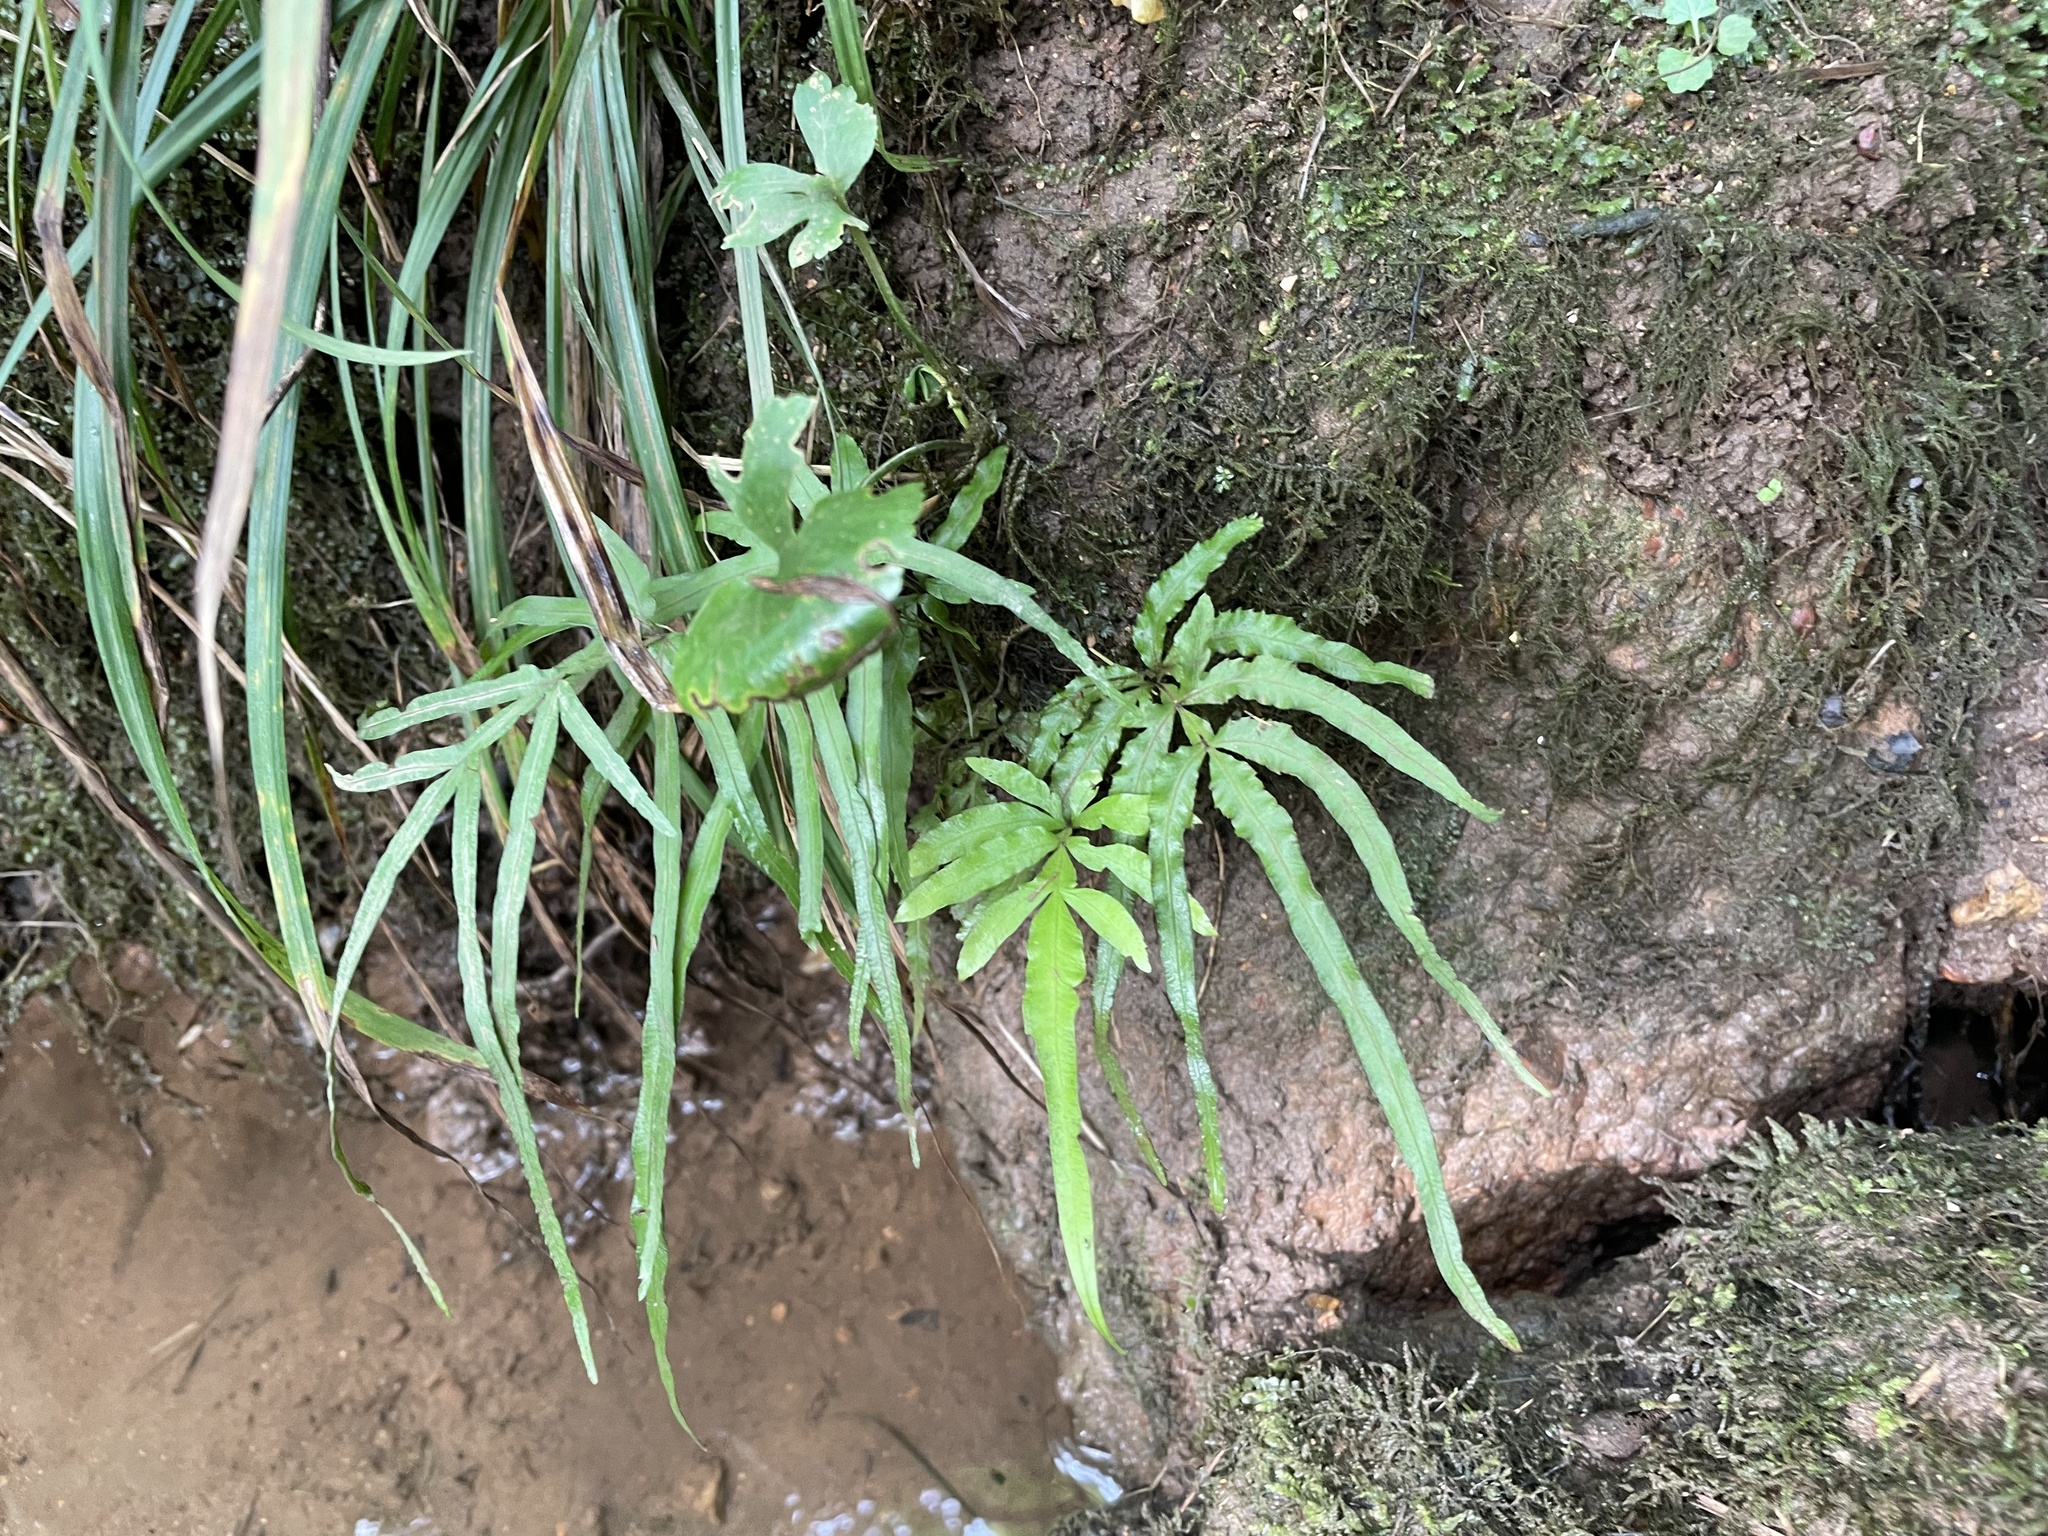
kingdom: Plantae
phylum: Tracheophyta
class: Polypodiopsida
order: Polypodiales
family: Pteridaceae
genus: Pteris
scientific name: Pteris multifida
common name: Spider brake
